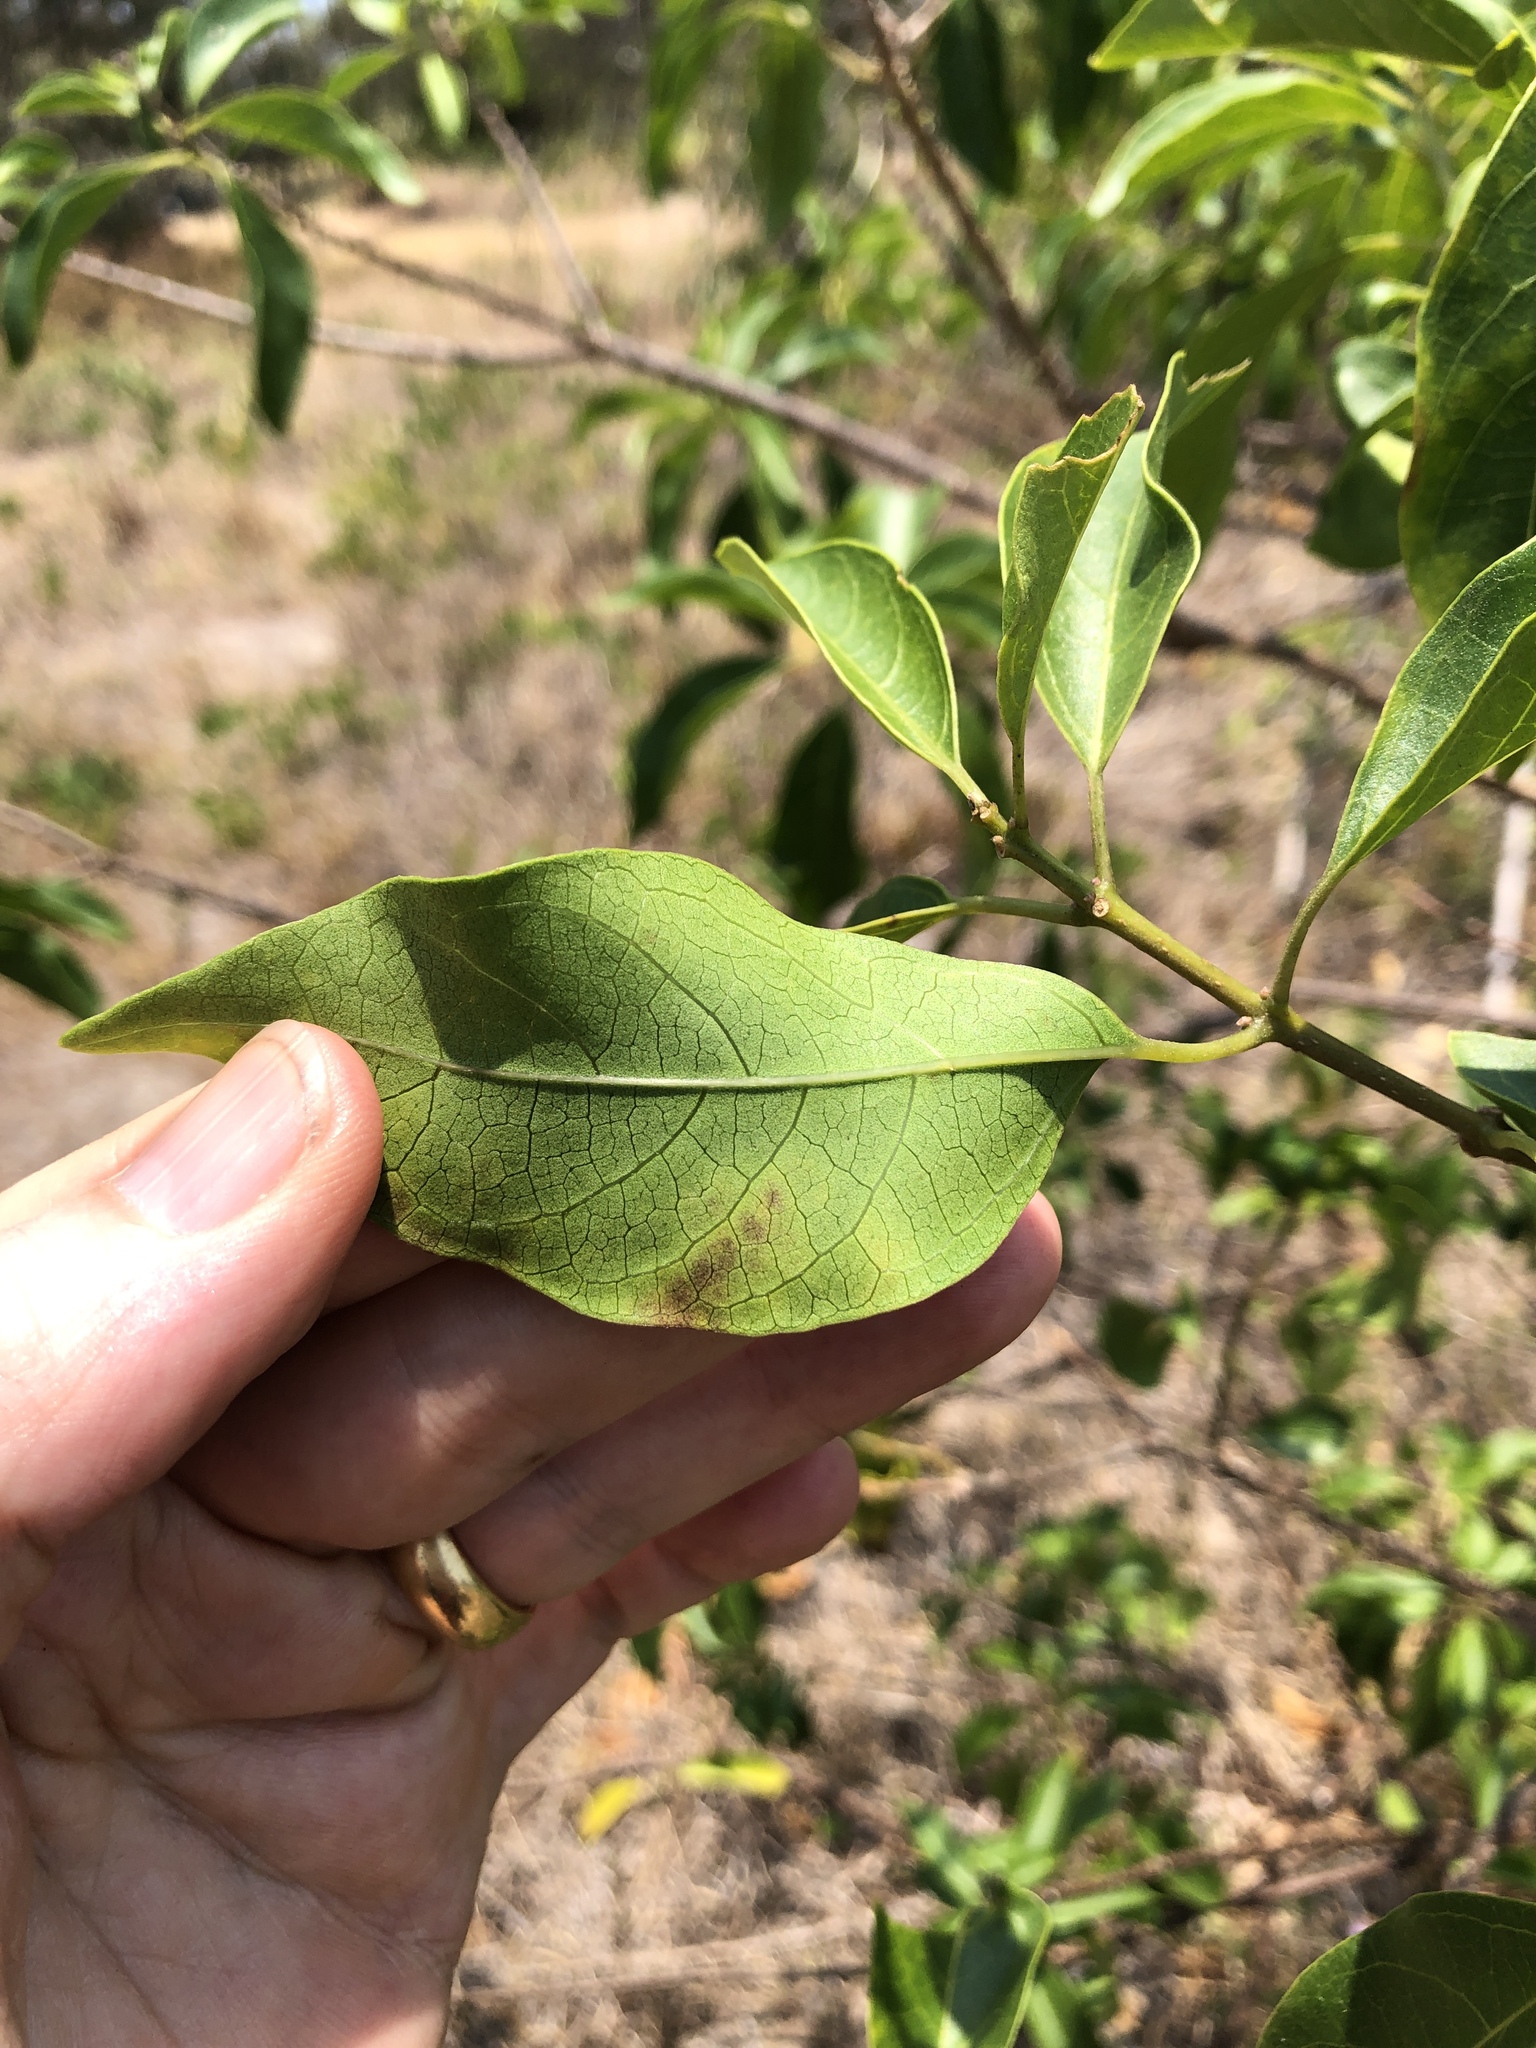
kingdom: Plantae
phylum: Tracheophyta
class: Magnoliopsida
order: Lamiales
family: Lamiaceae
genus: Clerodendrum
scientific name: Clerodendrum floribundum
